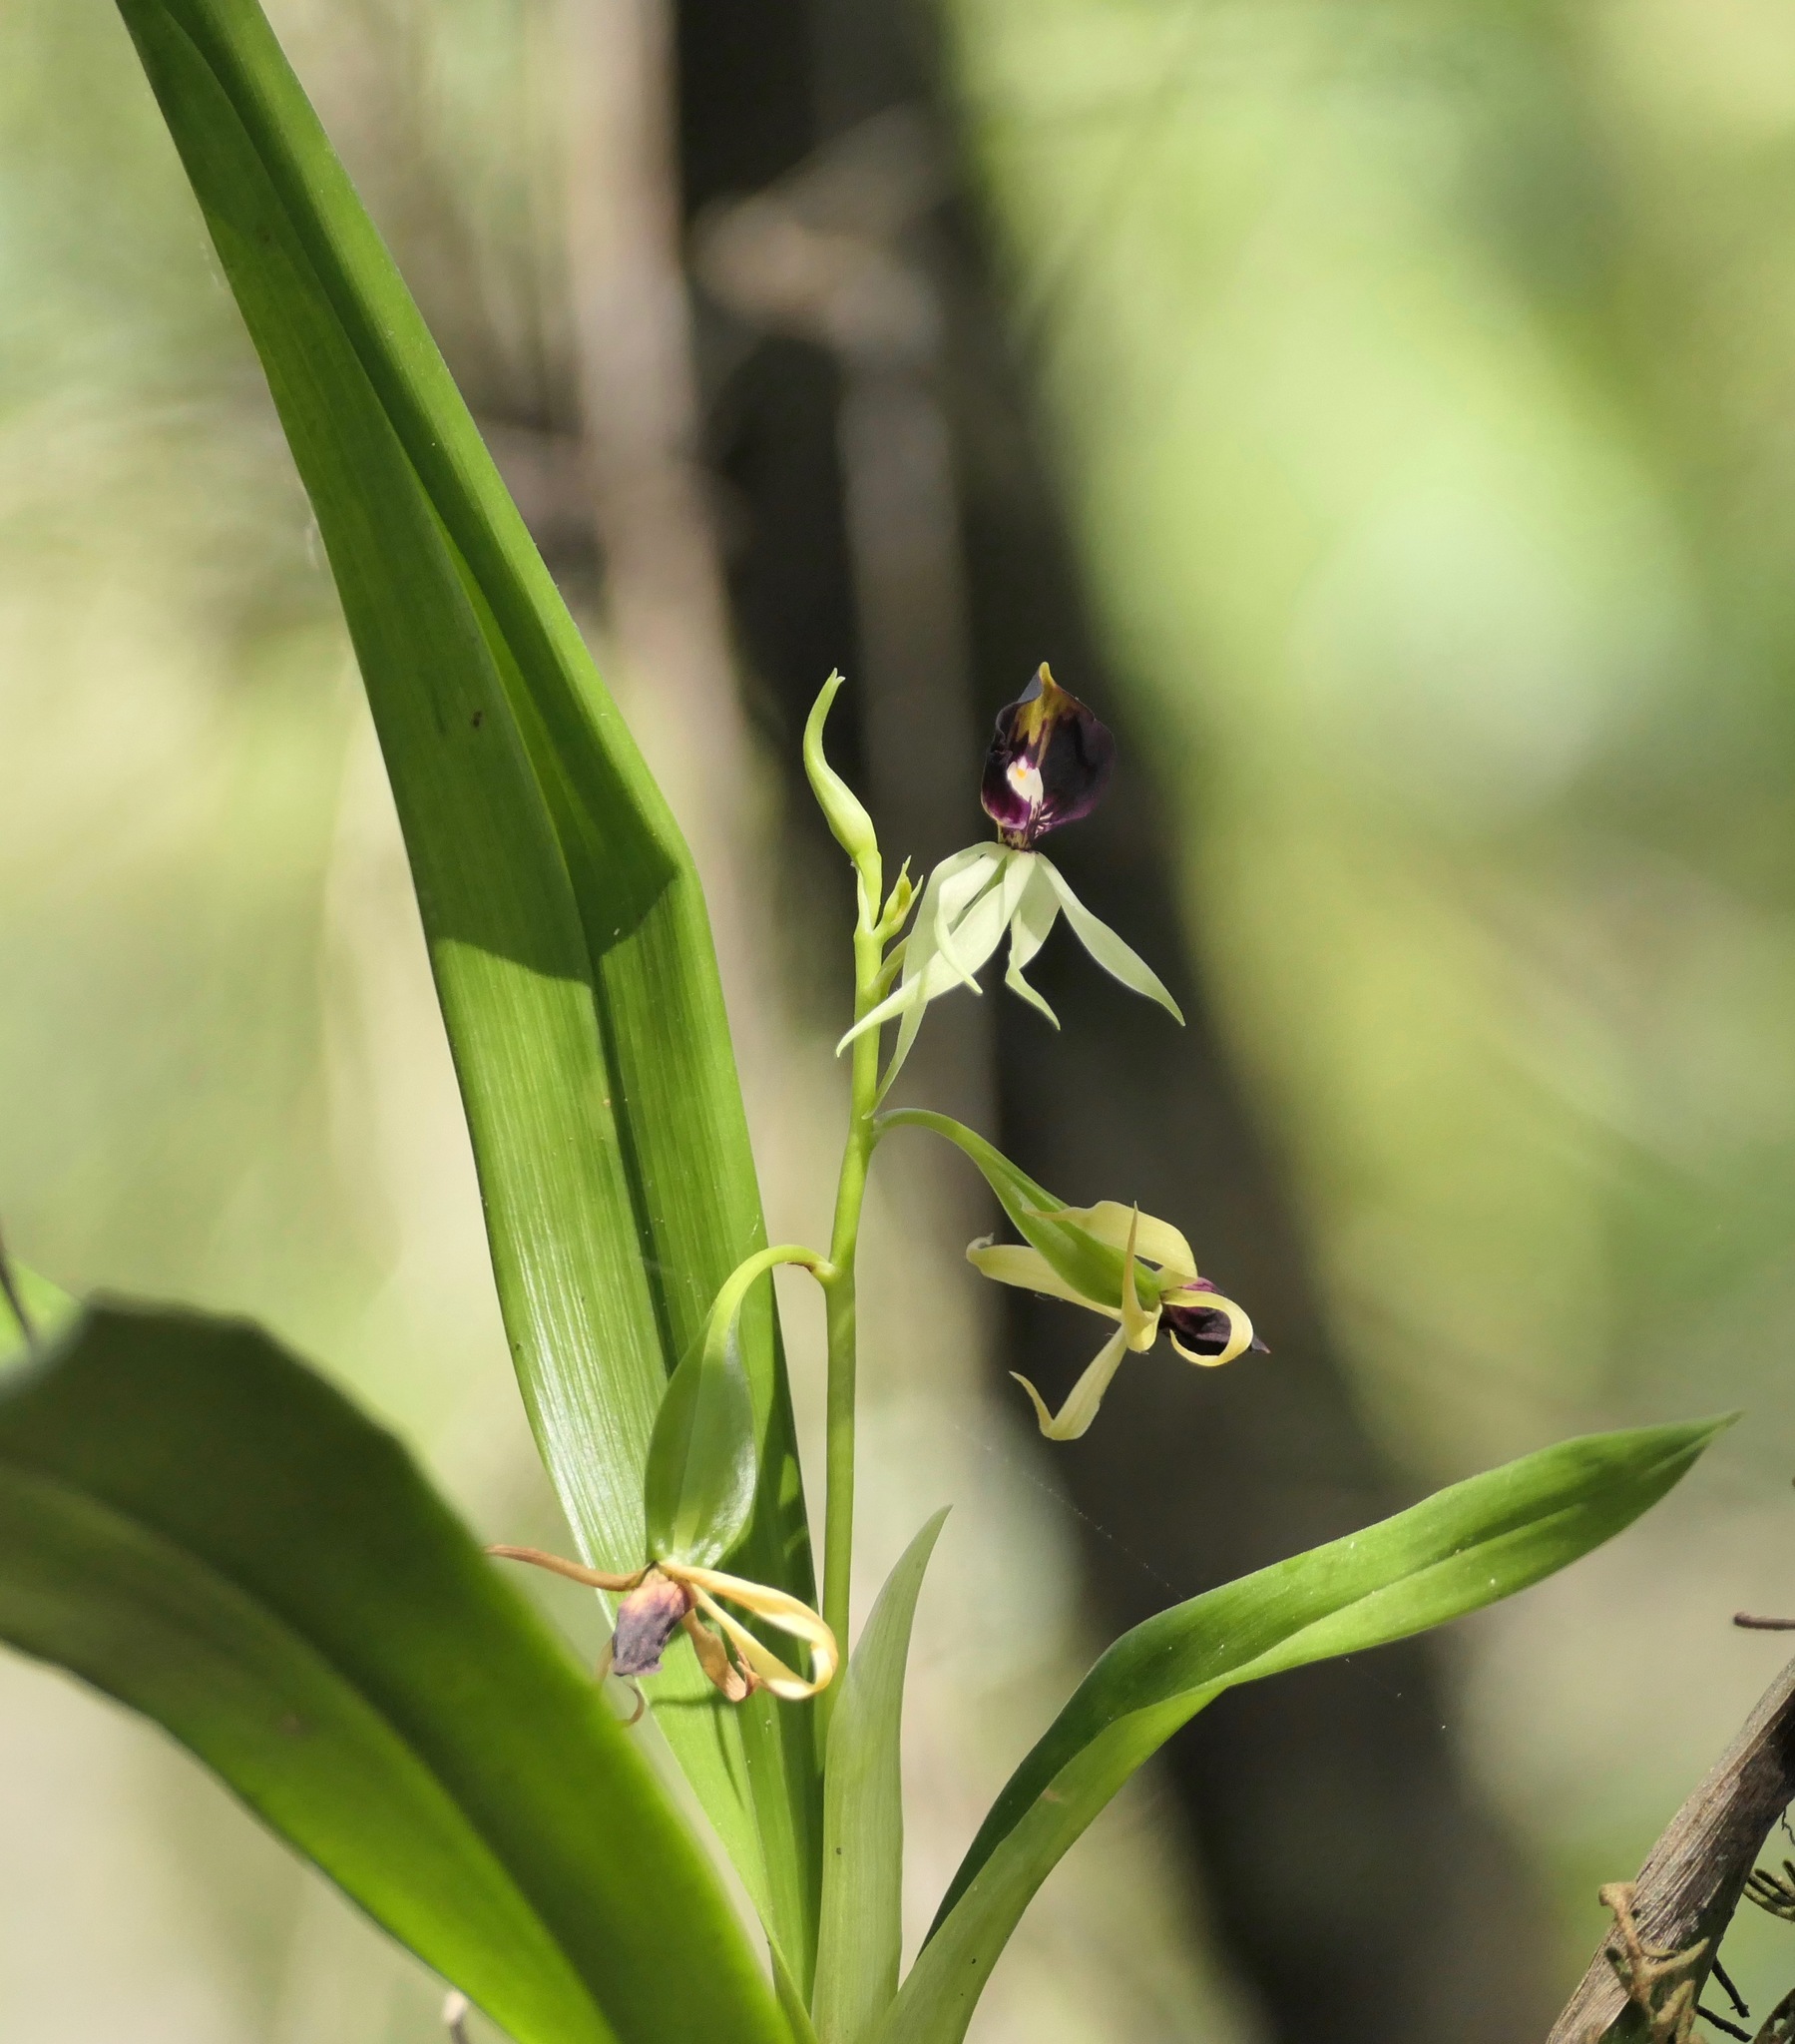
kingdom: Plantae
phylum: Tracheophyta
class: Liliopsida
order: Asparagales
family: Orchidaceae
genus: Prosthechea
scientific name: Prosthechea cochleata
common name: Clamshell orchid
